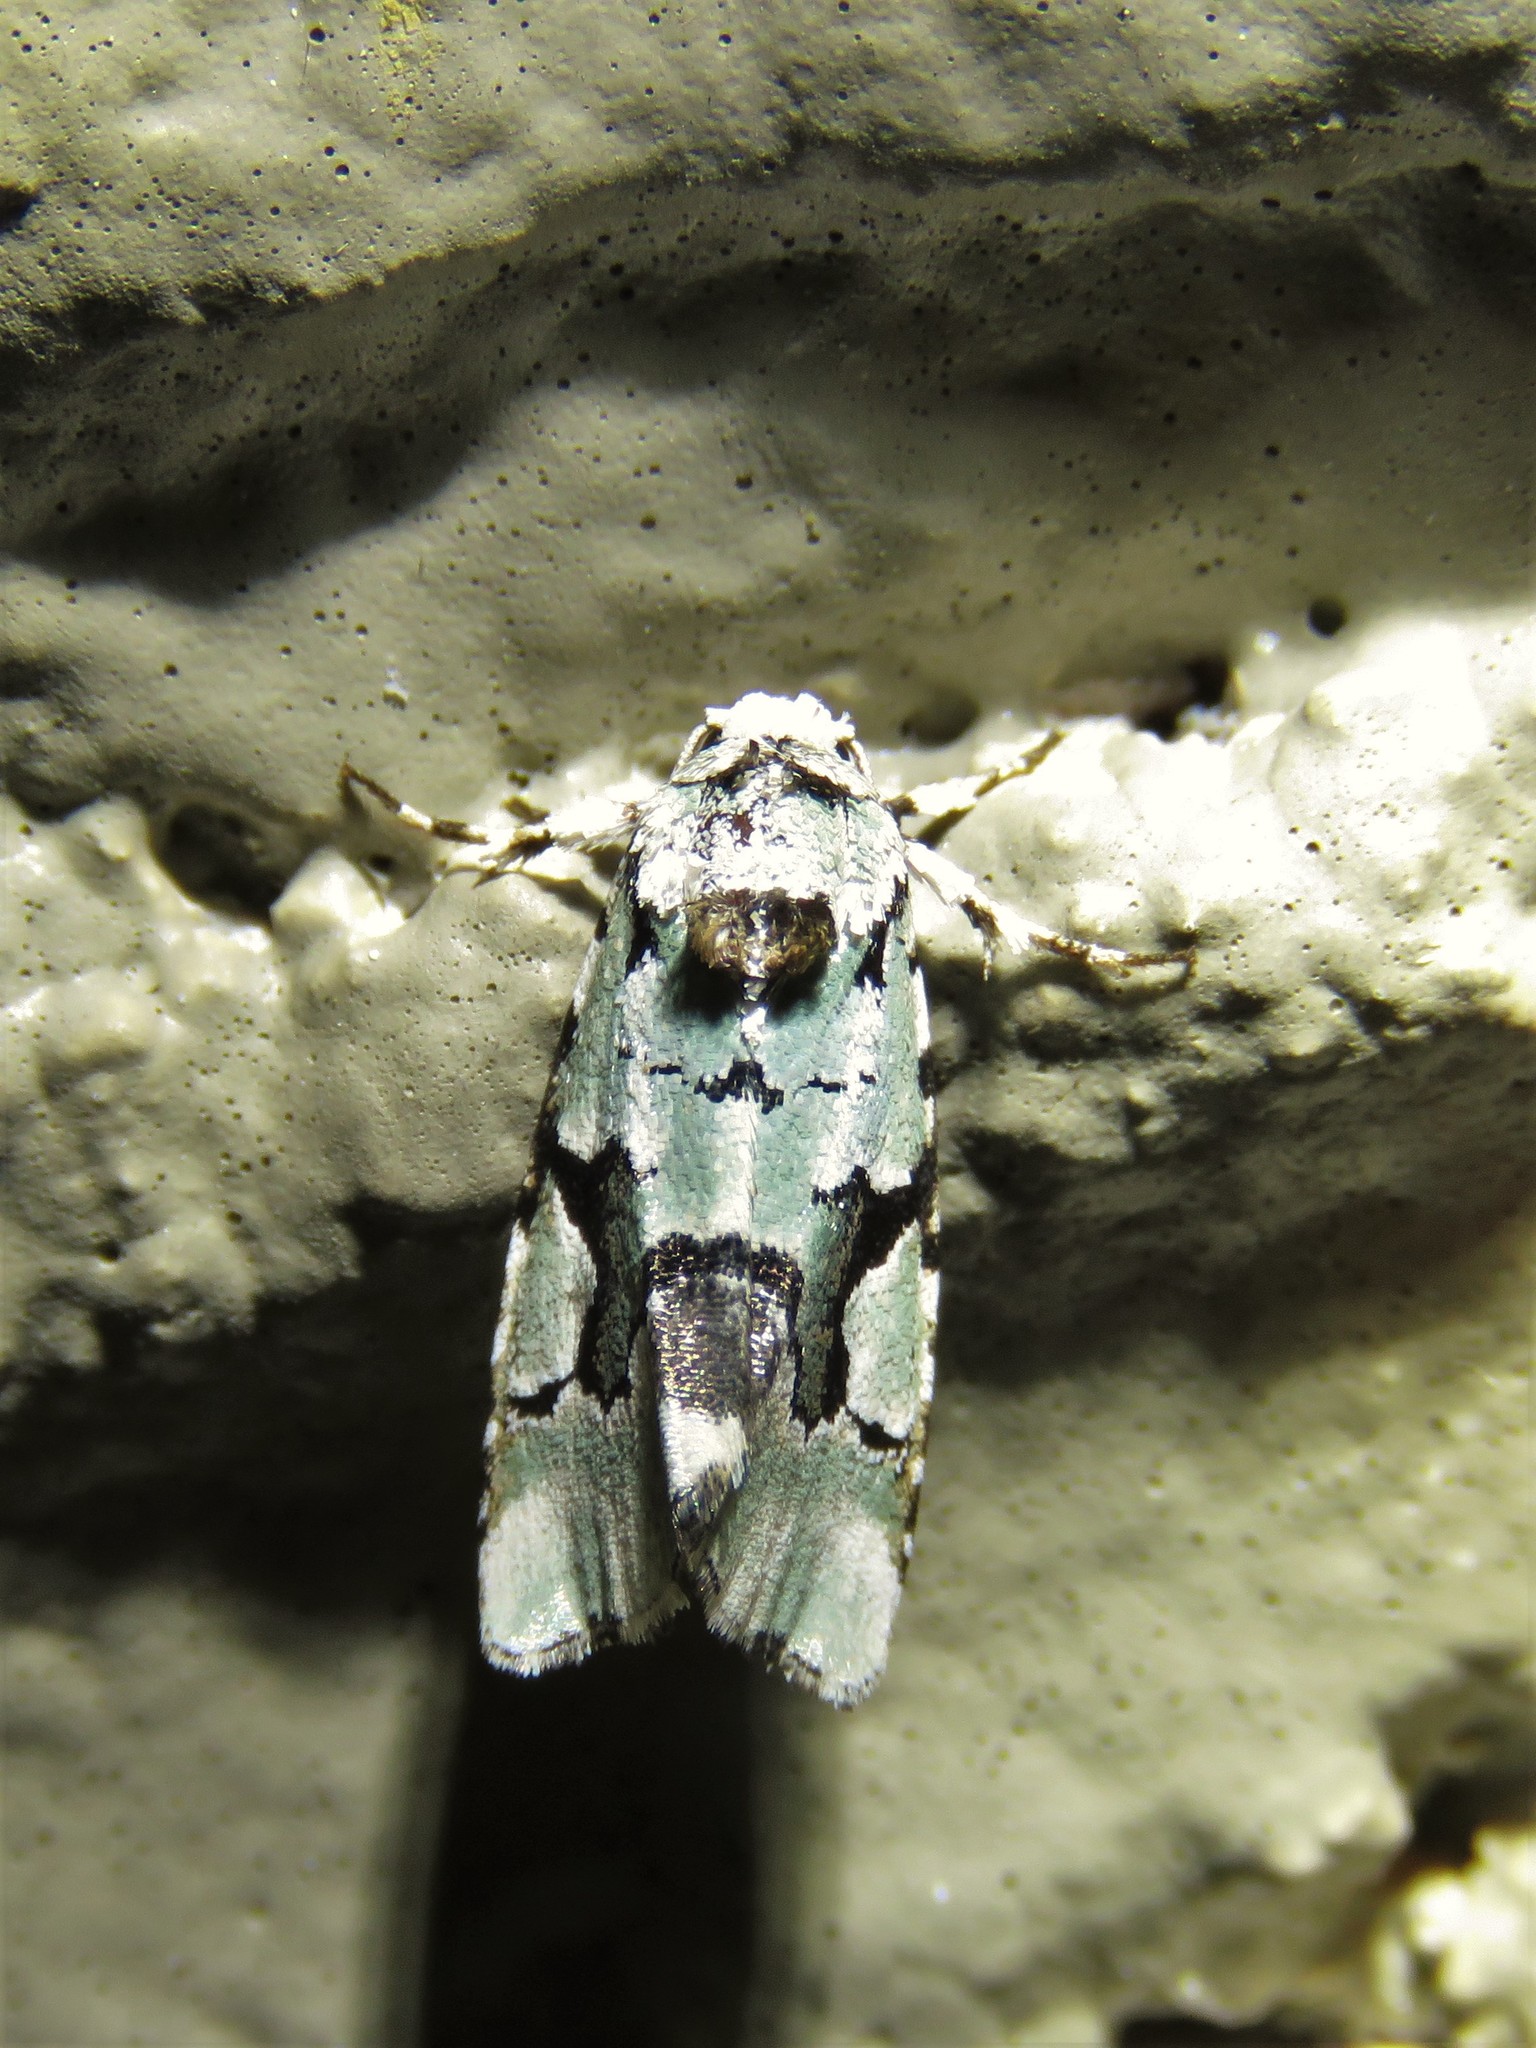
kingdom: Animalia
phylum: Arthropoda
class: Insecta
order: Lepidoptera
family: Noctuidae
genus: Emarginea
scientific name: Emarginea percara
